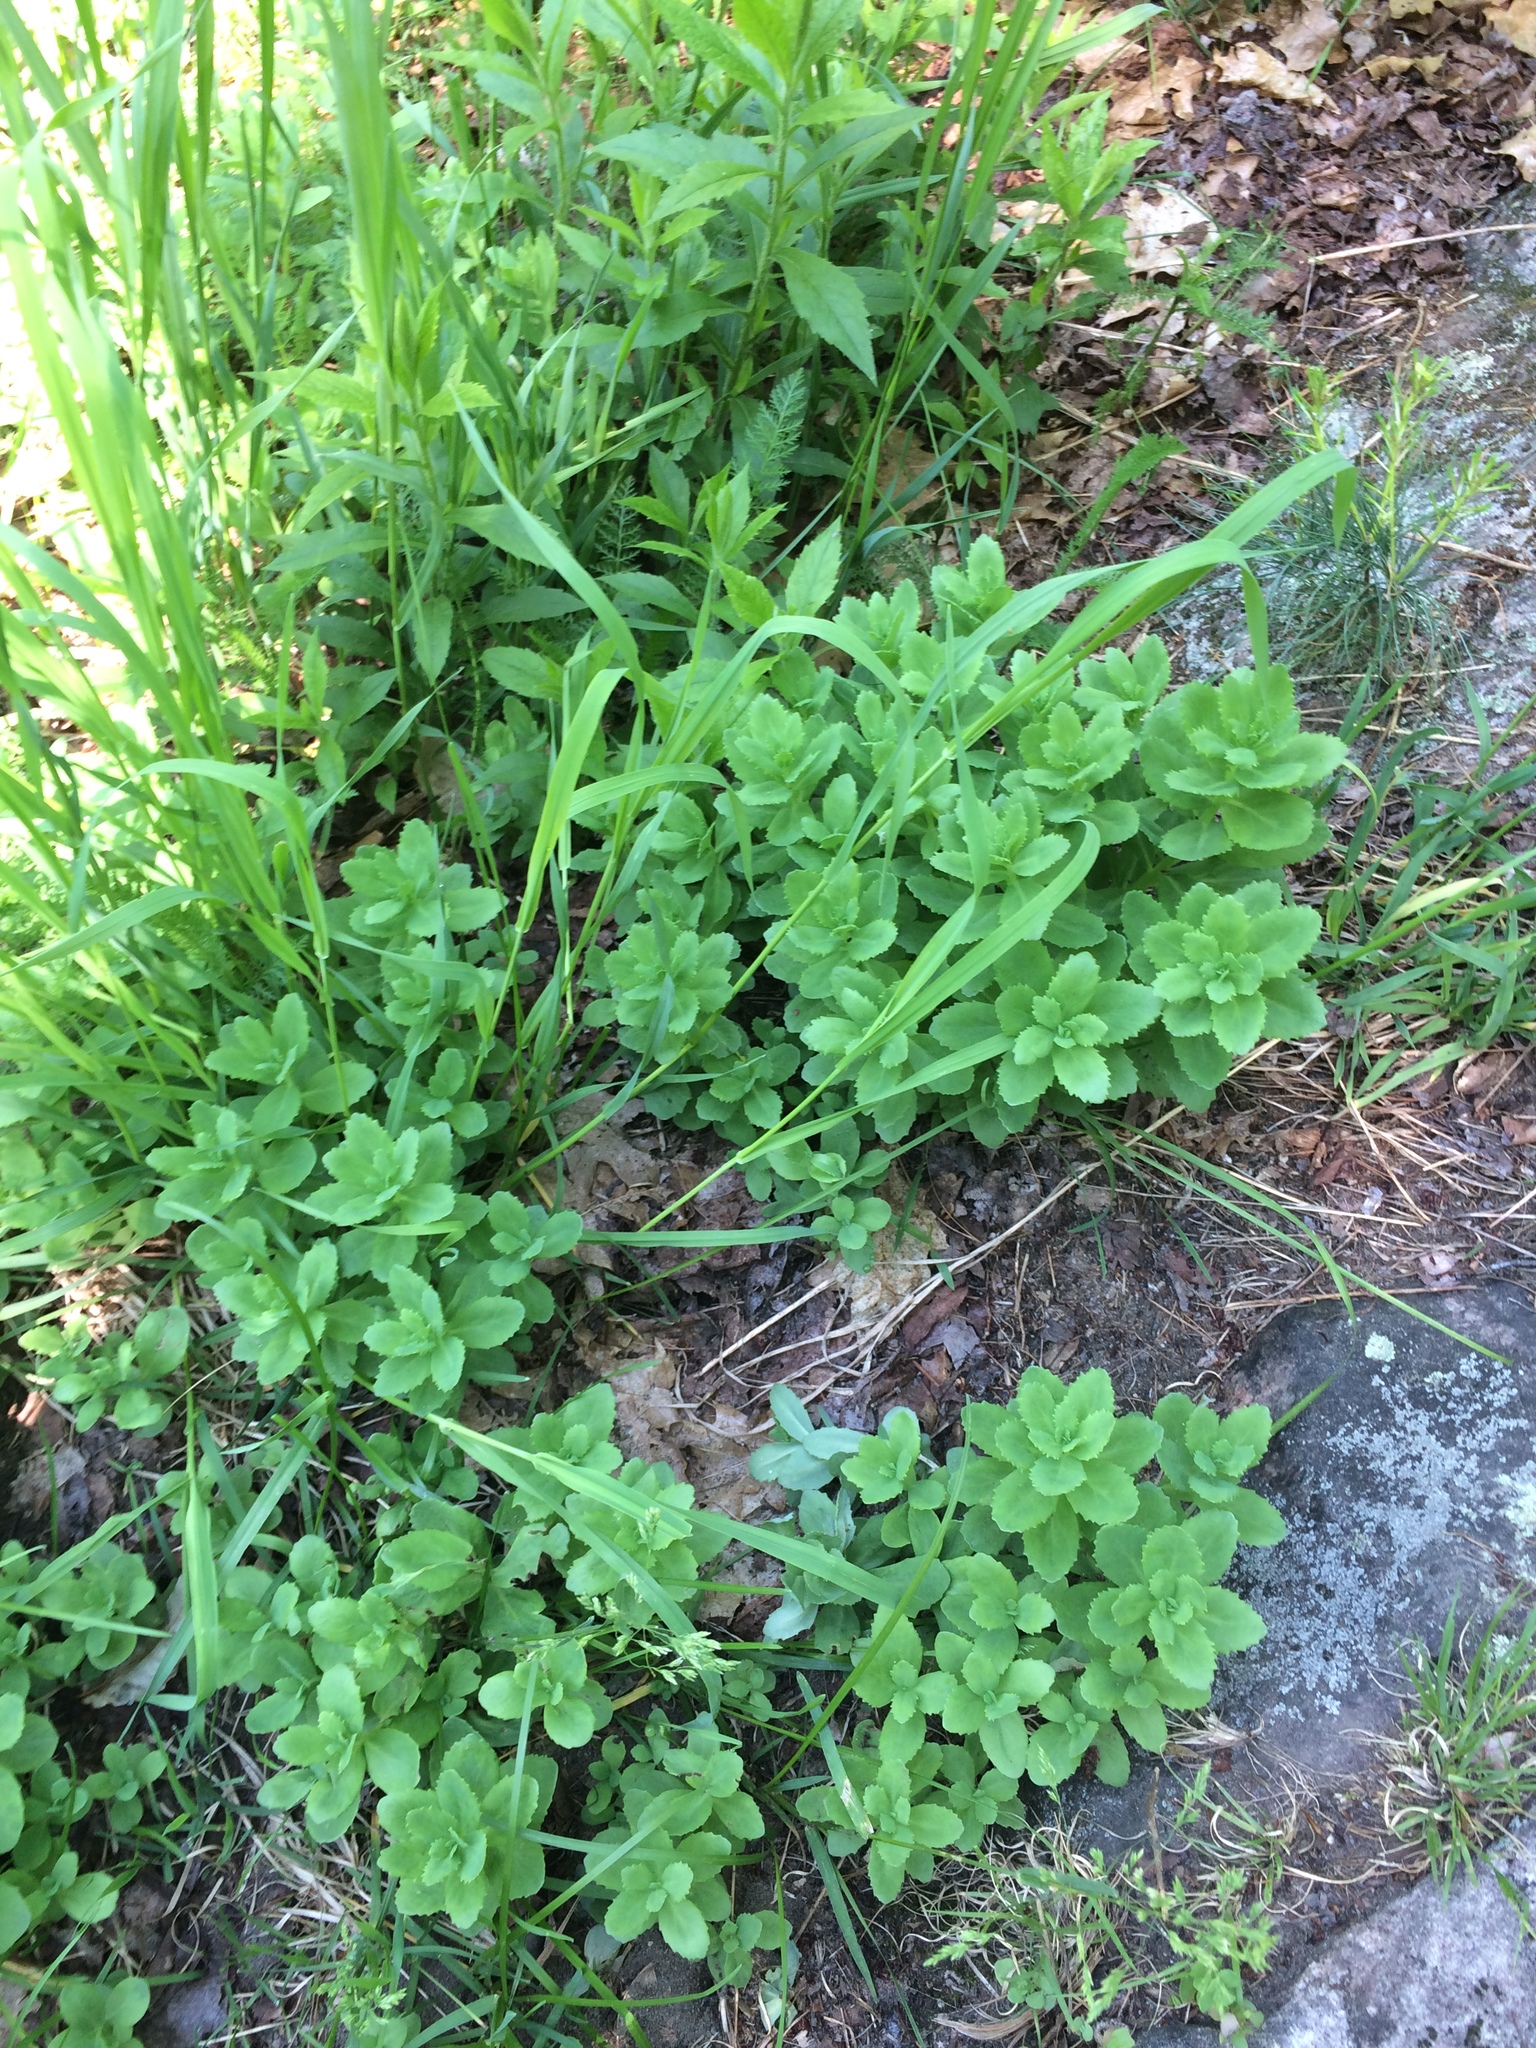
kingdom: Plantae
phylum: Tracheophyta
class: Magnoliopsida
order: Saxifragales
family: Crassulaceae
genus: Hylotelephium
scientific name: Hylotelephium telephium
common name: Live-forever
